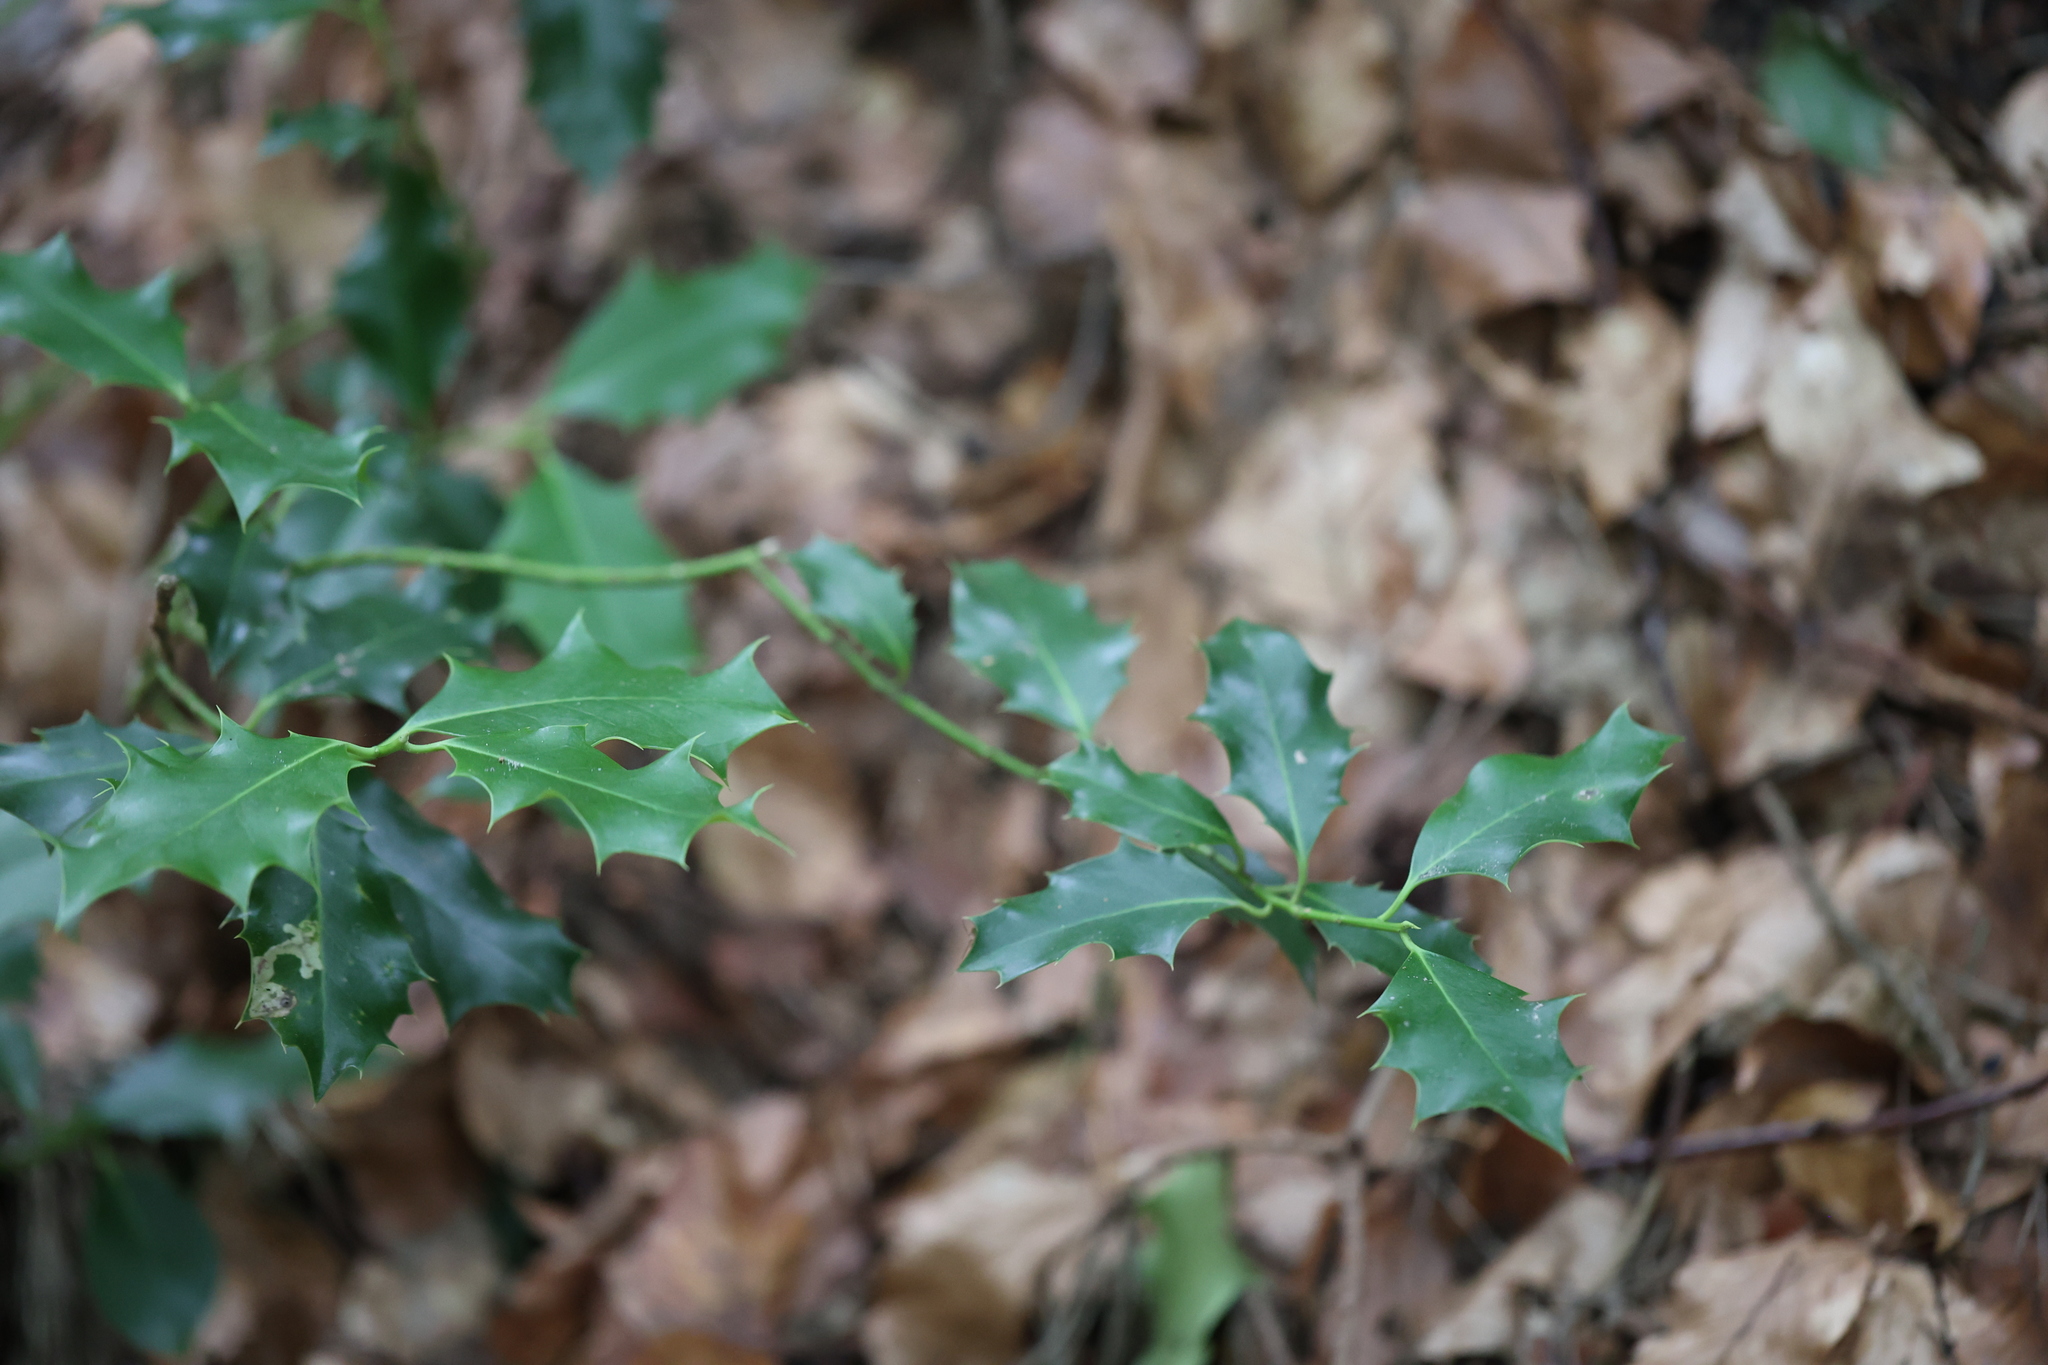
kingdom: Plantae
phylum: Tracheophyta
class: Magnoliopsida
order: Aquifoliales
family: Aquifoliaceae
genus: Ilex
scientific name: Ilex aquifolium
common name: English holly
